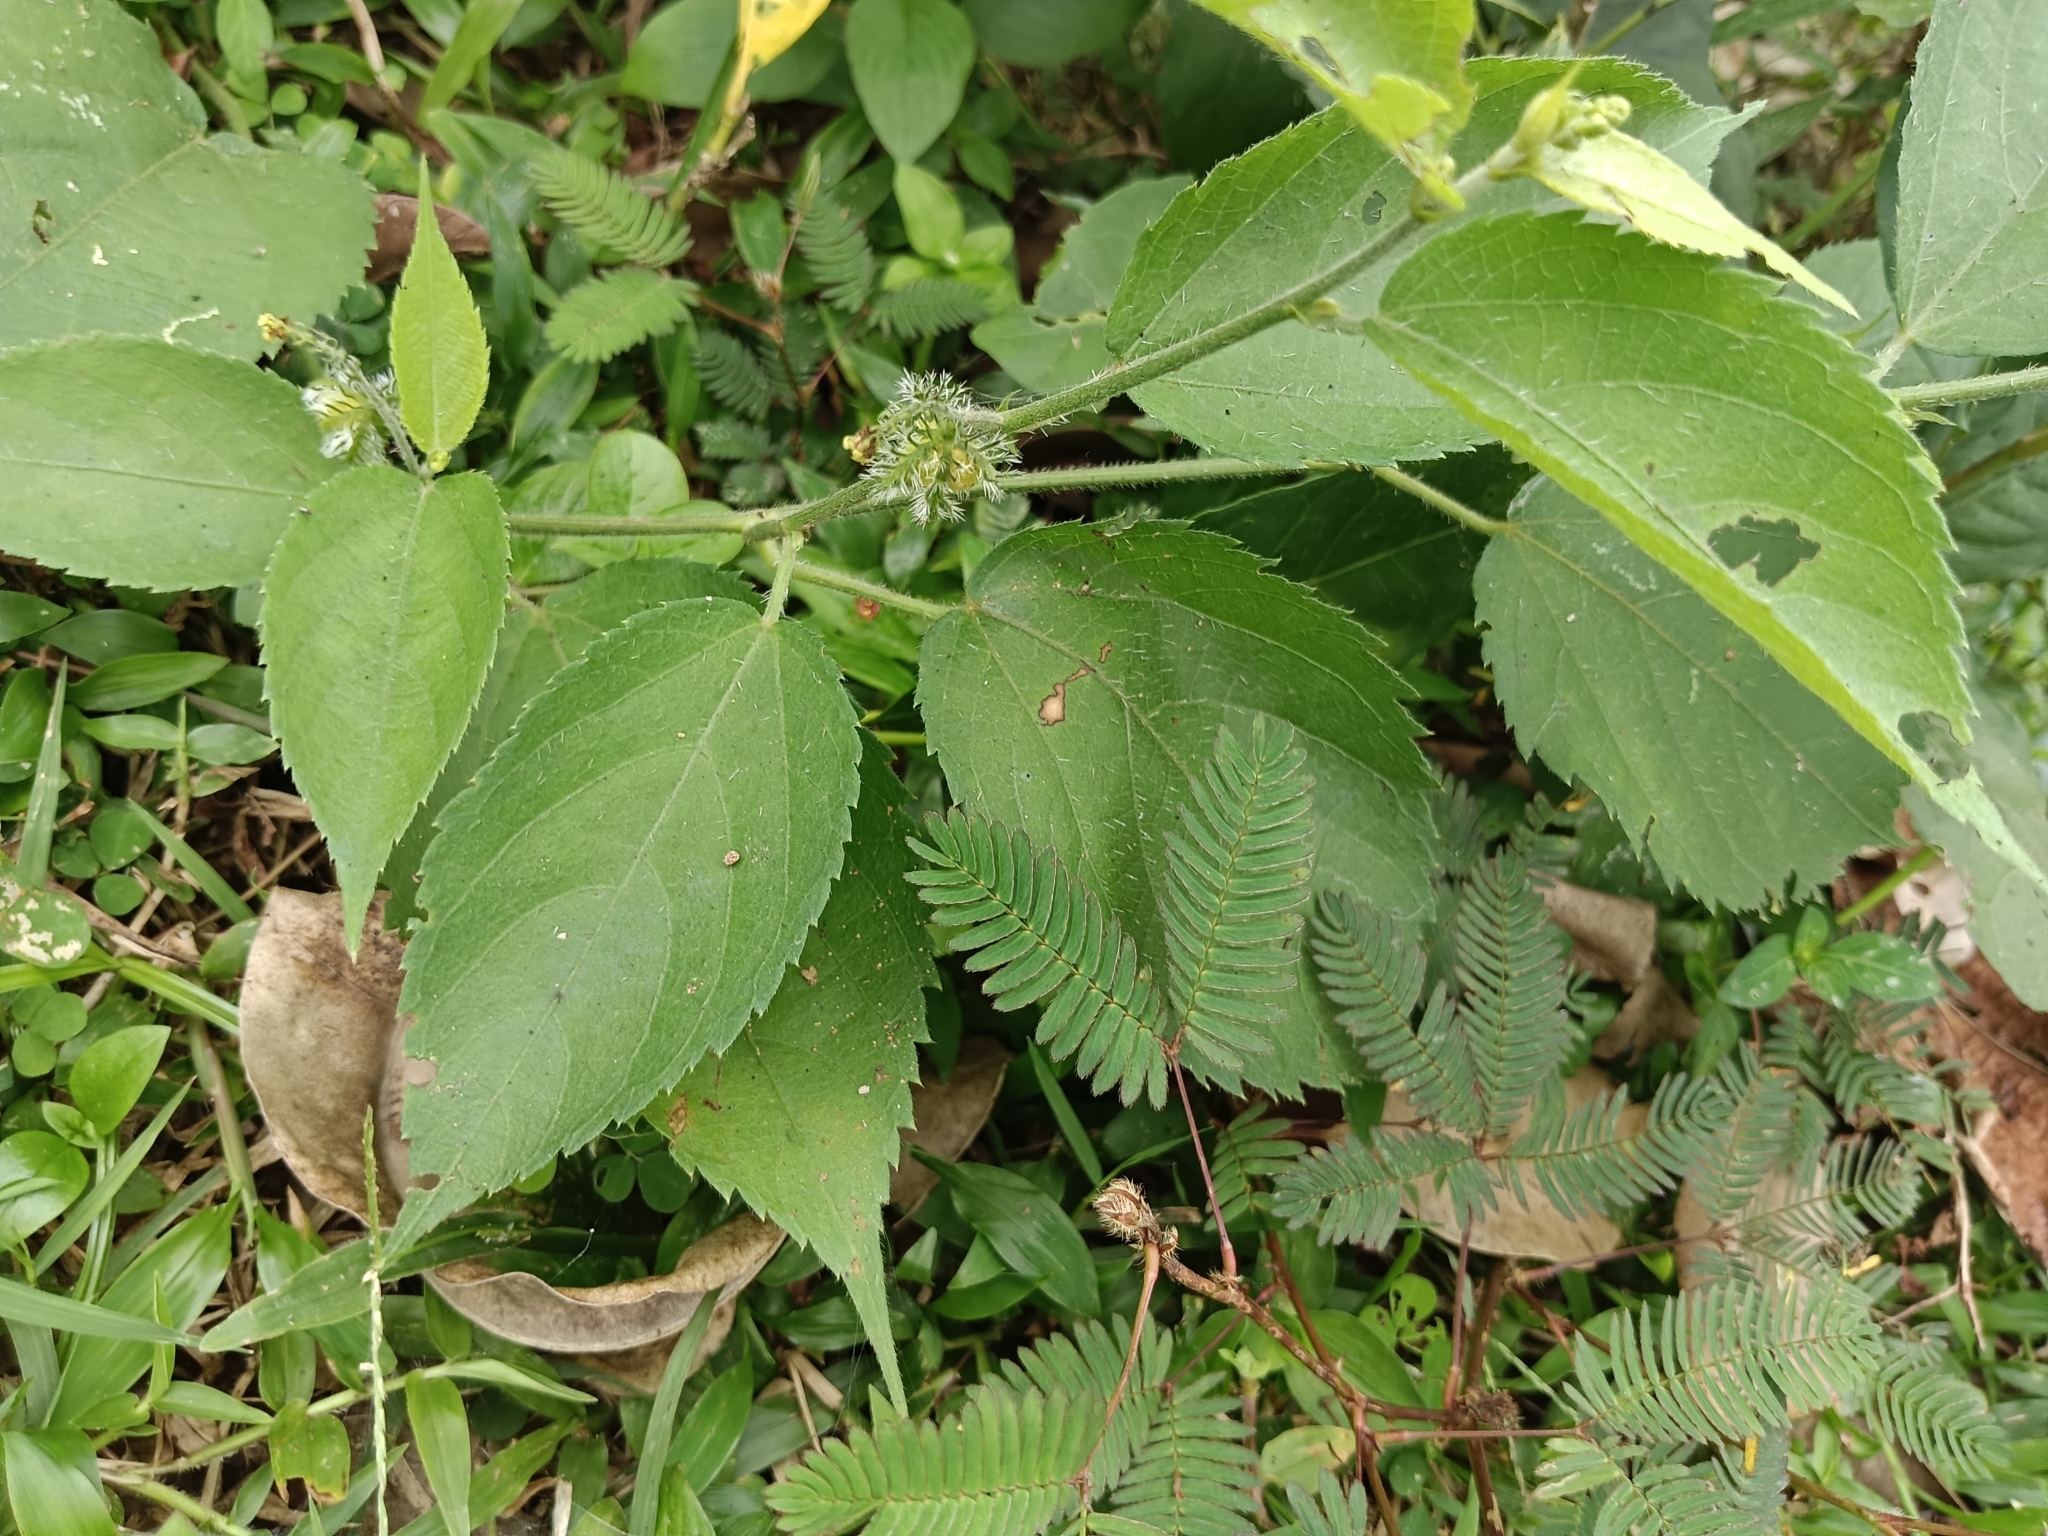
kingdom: Plantae
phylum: Tracheophyta
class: Magnoliopsida
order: Malpighiales
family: Euphorbiaceae
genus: Tragia
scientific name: Tragia involucrata
